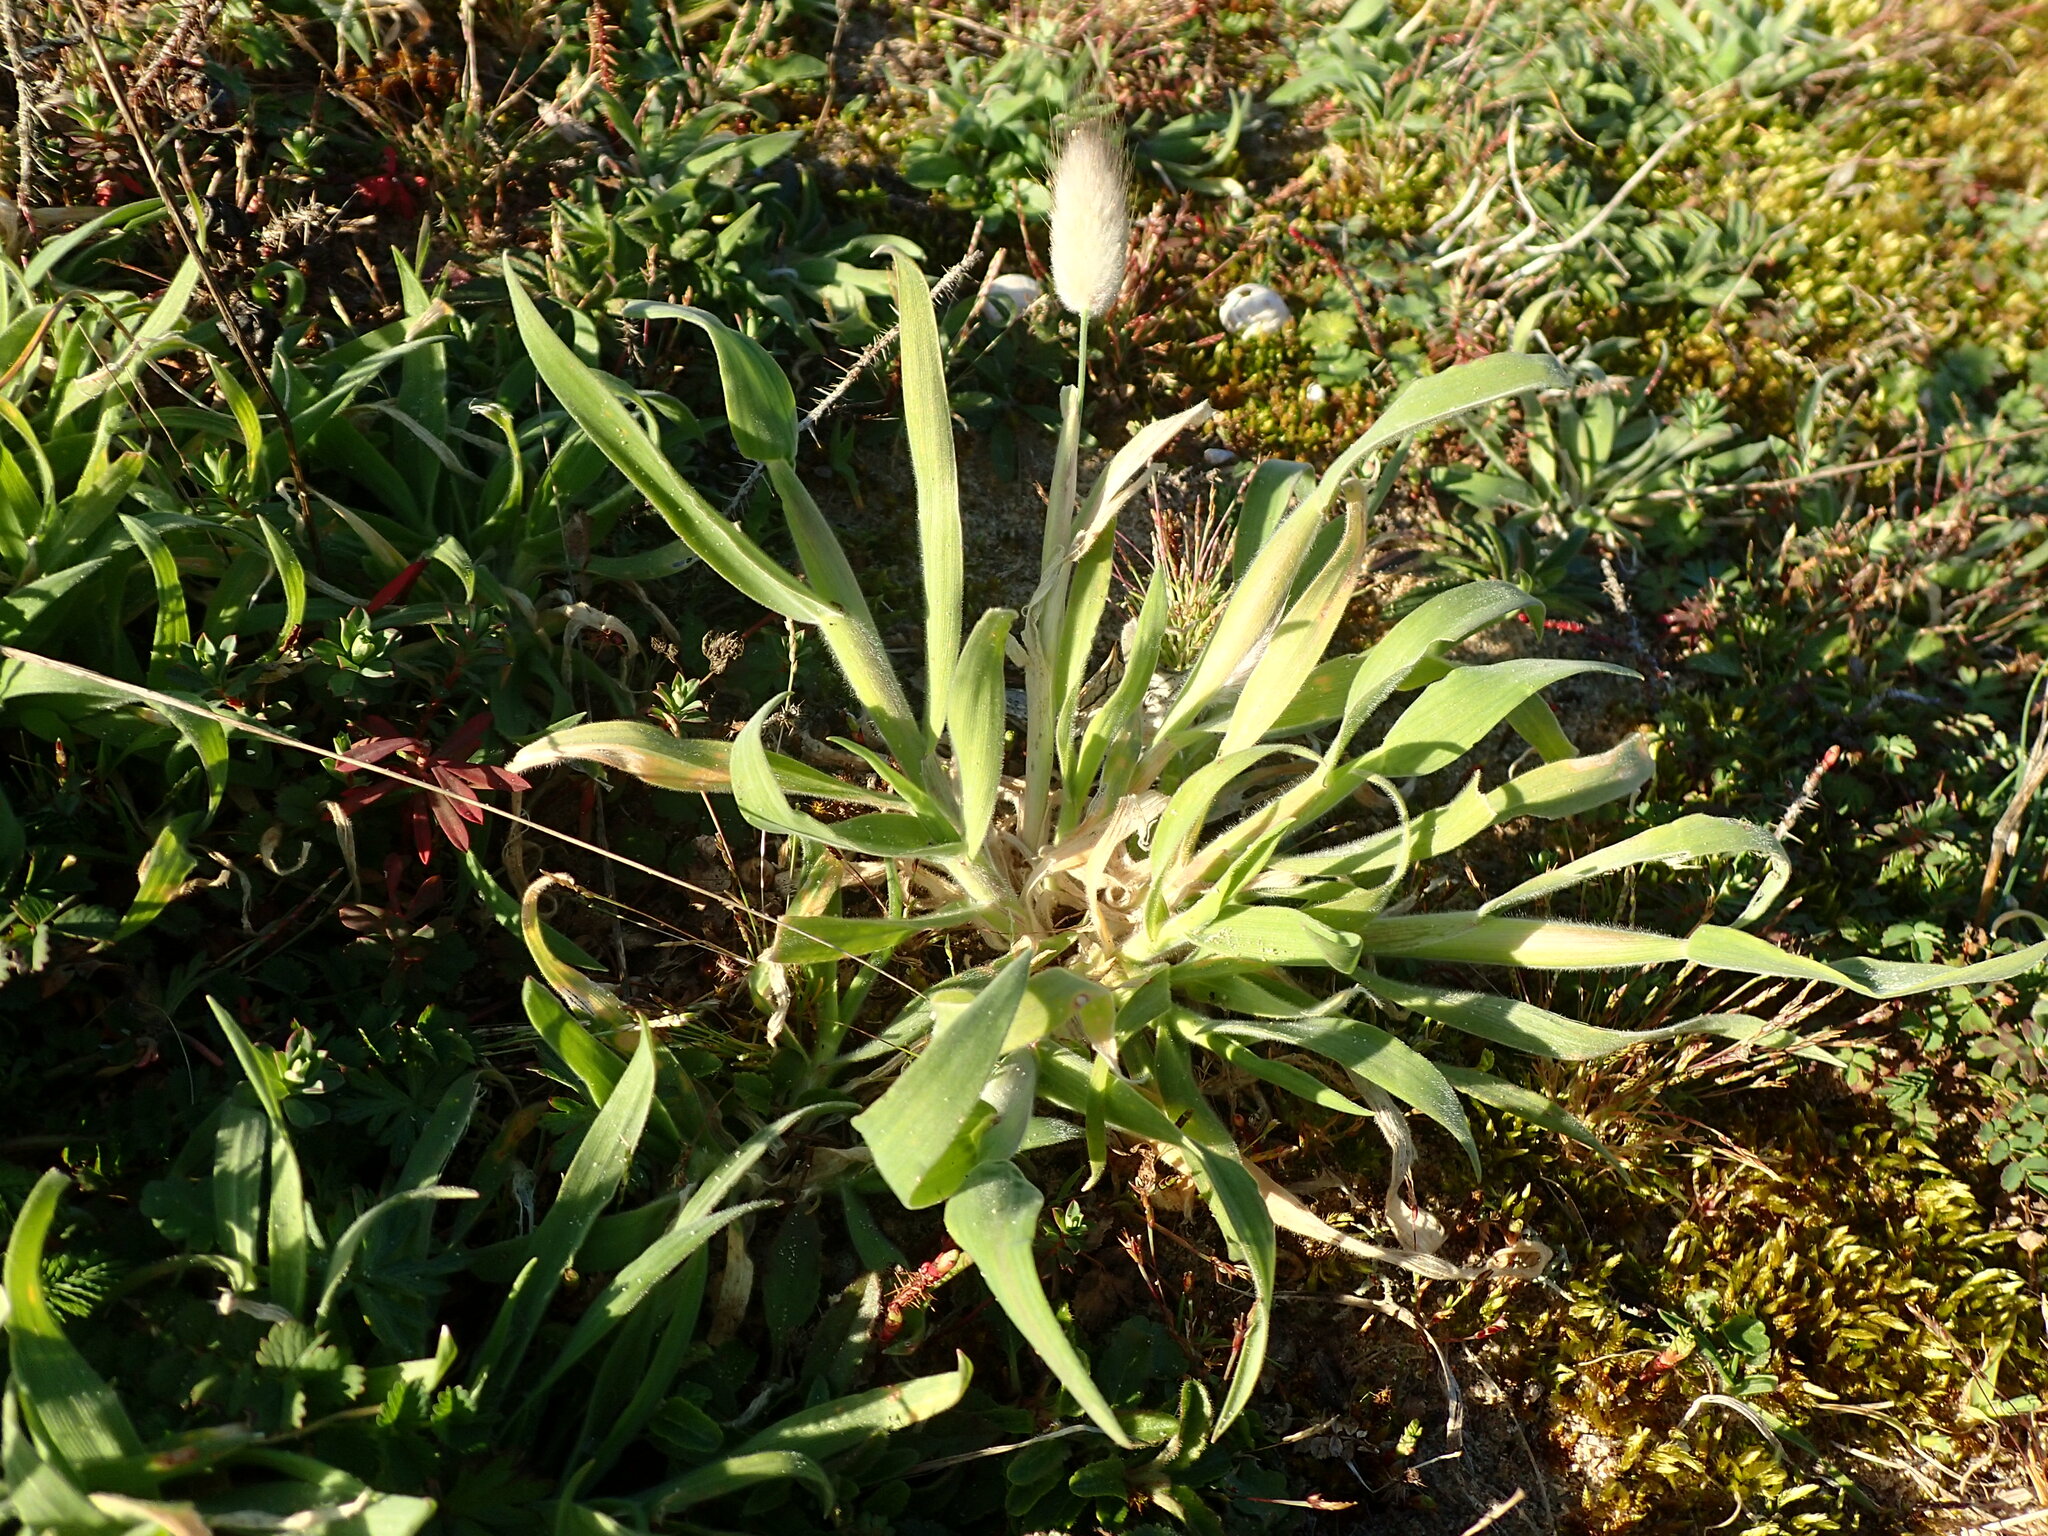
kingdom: Plantae
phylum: Tracheophyta
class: Liliopsida
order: Poales
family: Poaceae
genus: Lagurus
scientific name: Lagurus ovatus
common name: Hare's-tail
